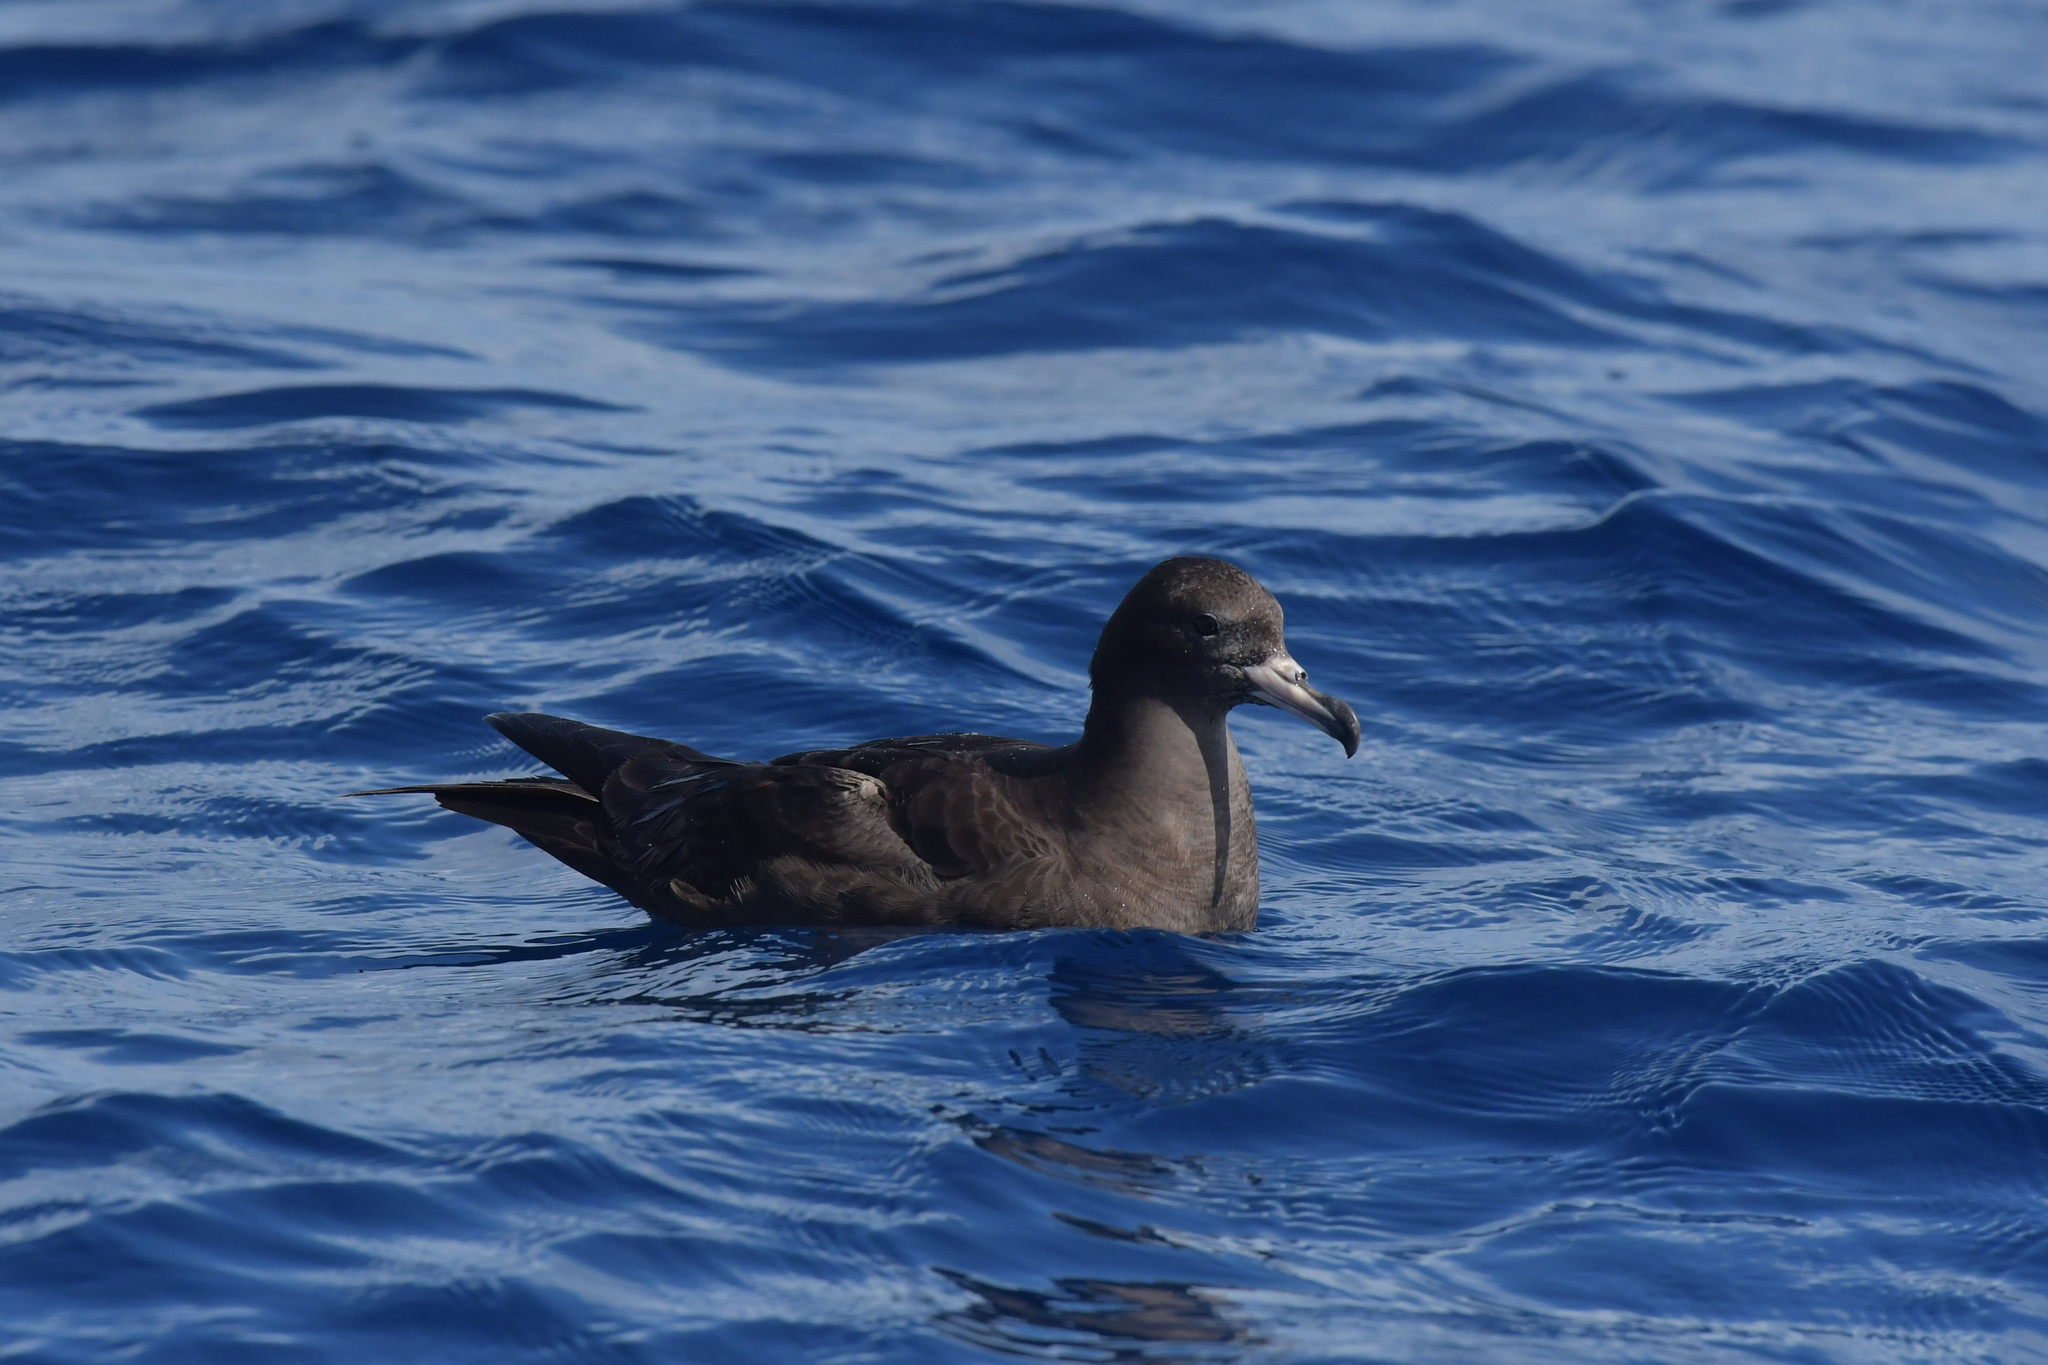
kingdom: Animalia
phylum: Chordata
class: Aves
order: Procellariiformes
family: Procellariidae
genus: Puffinus
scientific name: Puffinus carneipes
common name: Flesh-footed shearwater
